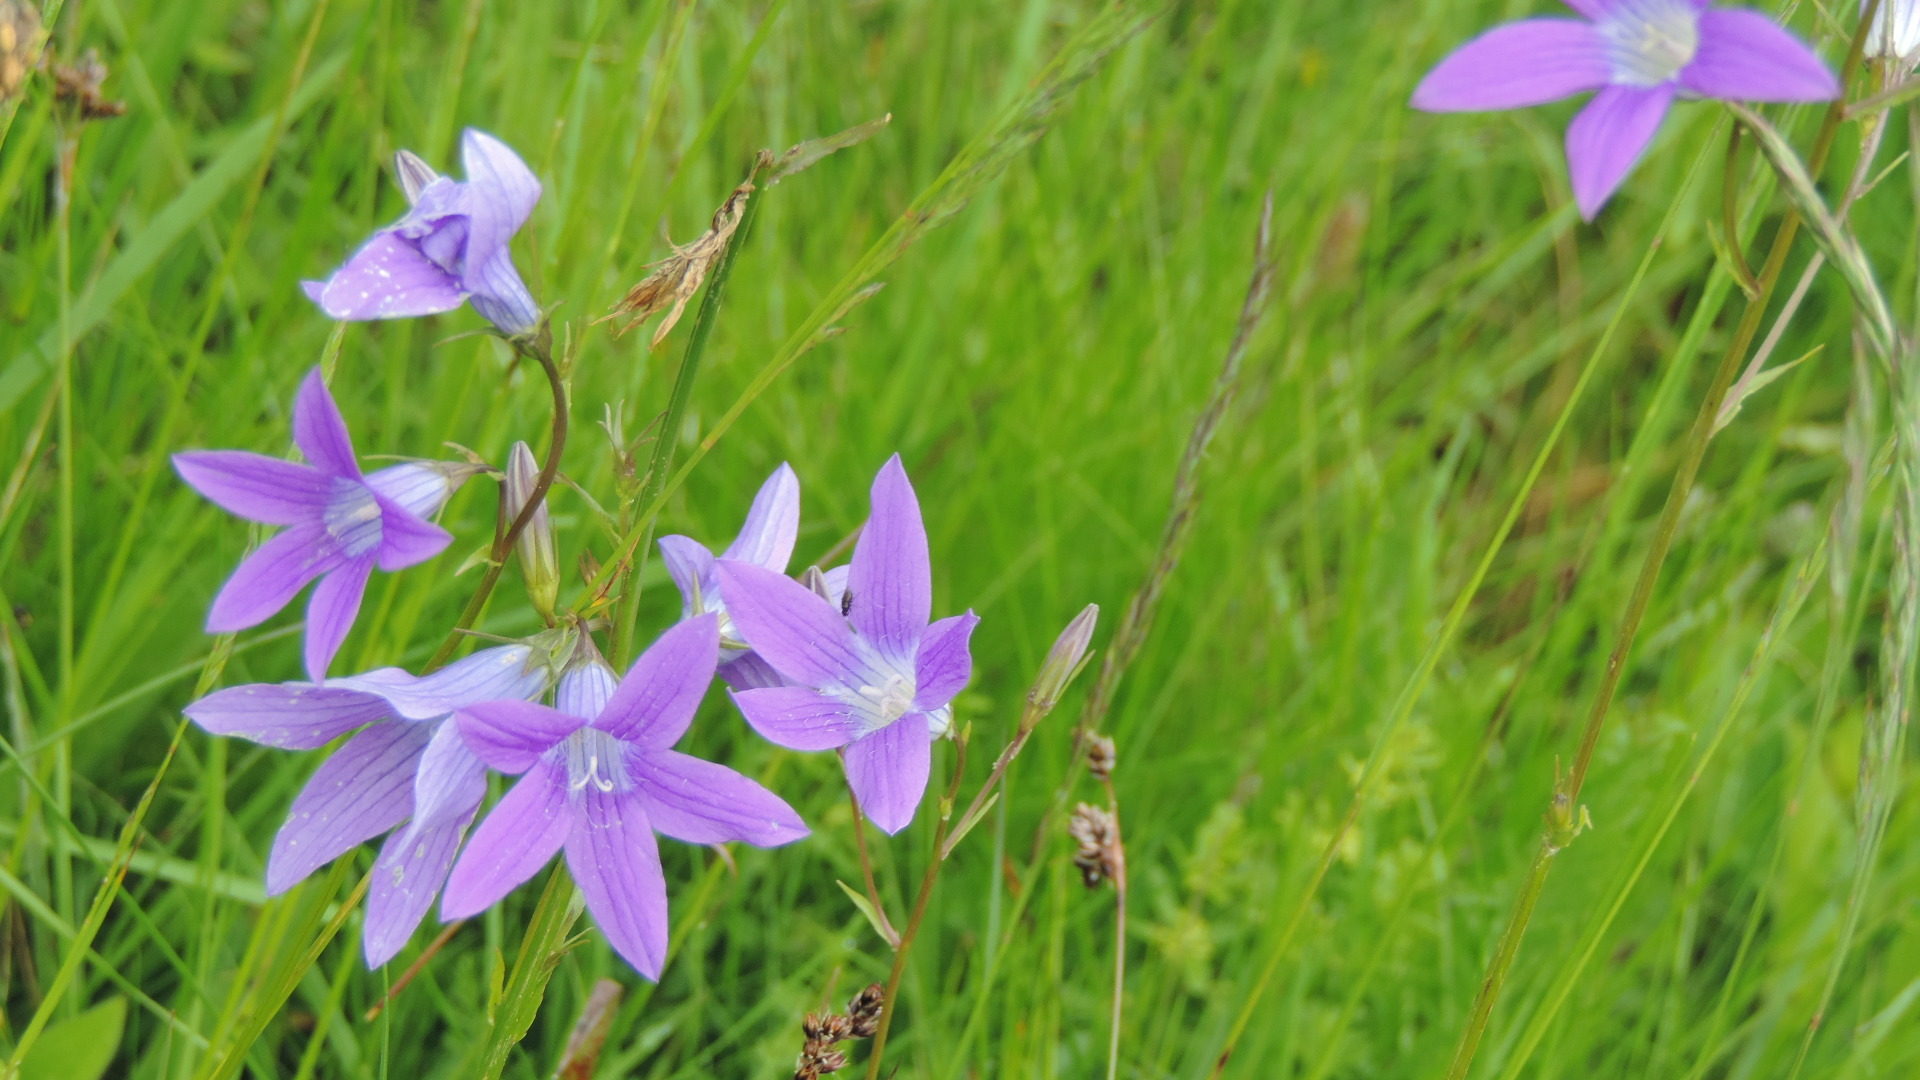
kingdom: Plantae
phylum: Tracheophyta
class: Magnoliopsida
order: Asterales
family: Campanulaceae
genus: Campanula
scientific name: Campanula patula
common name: Spreading bellflower
